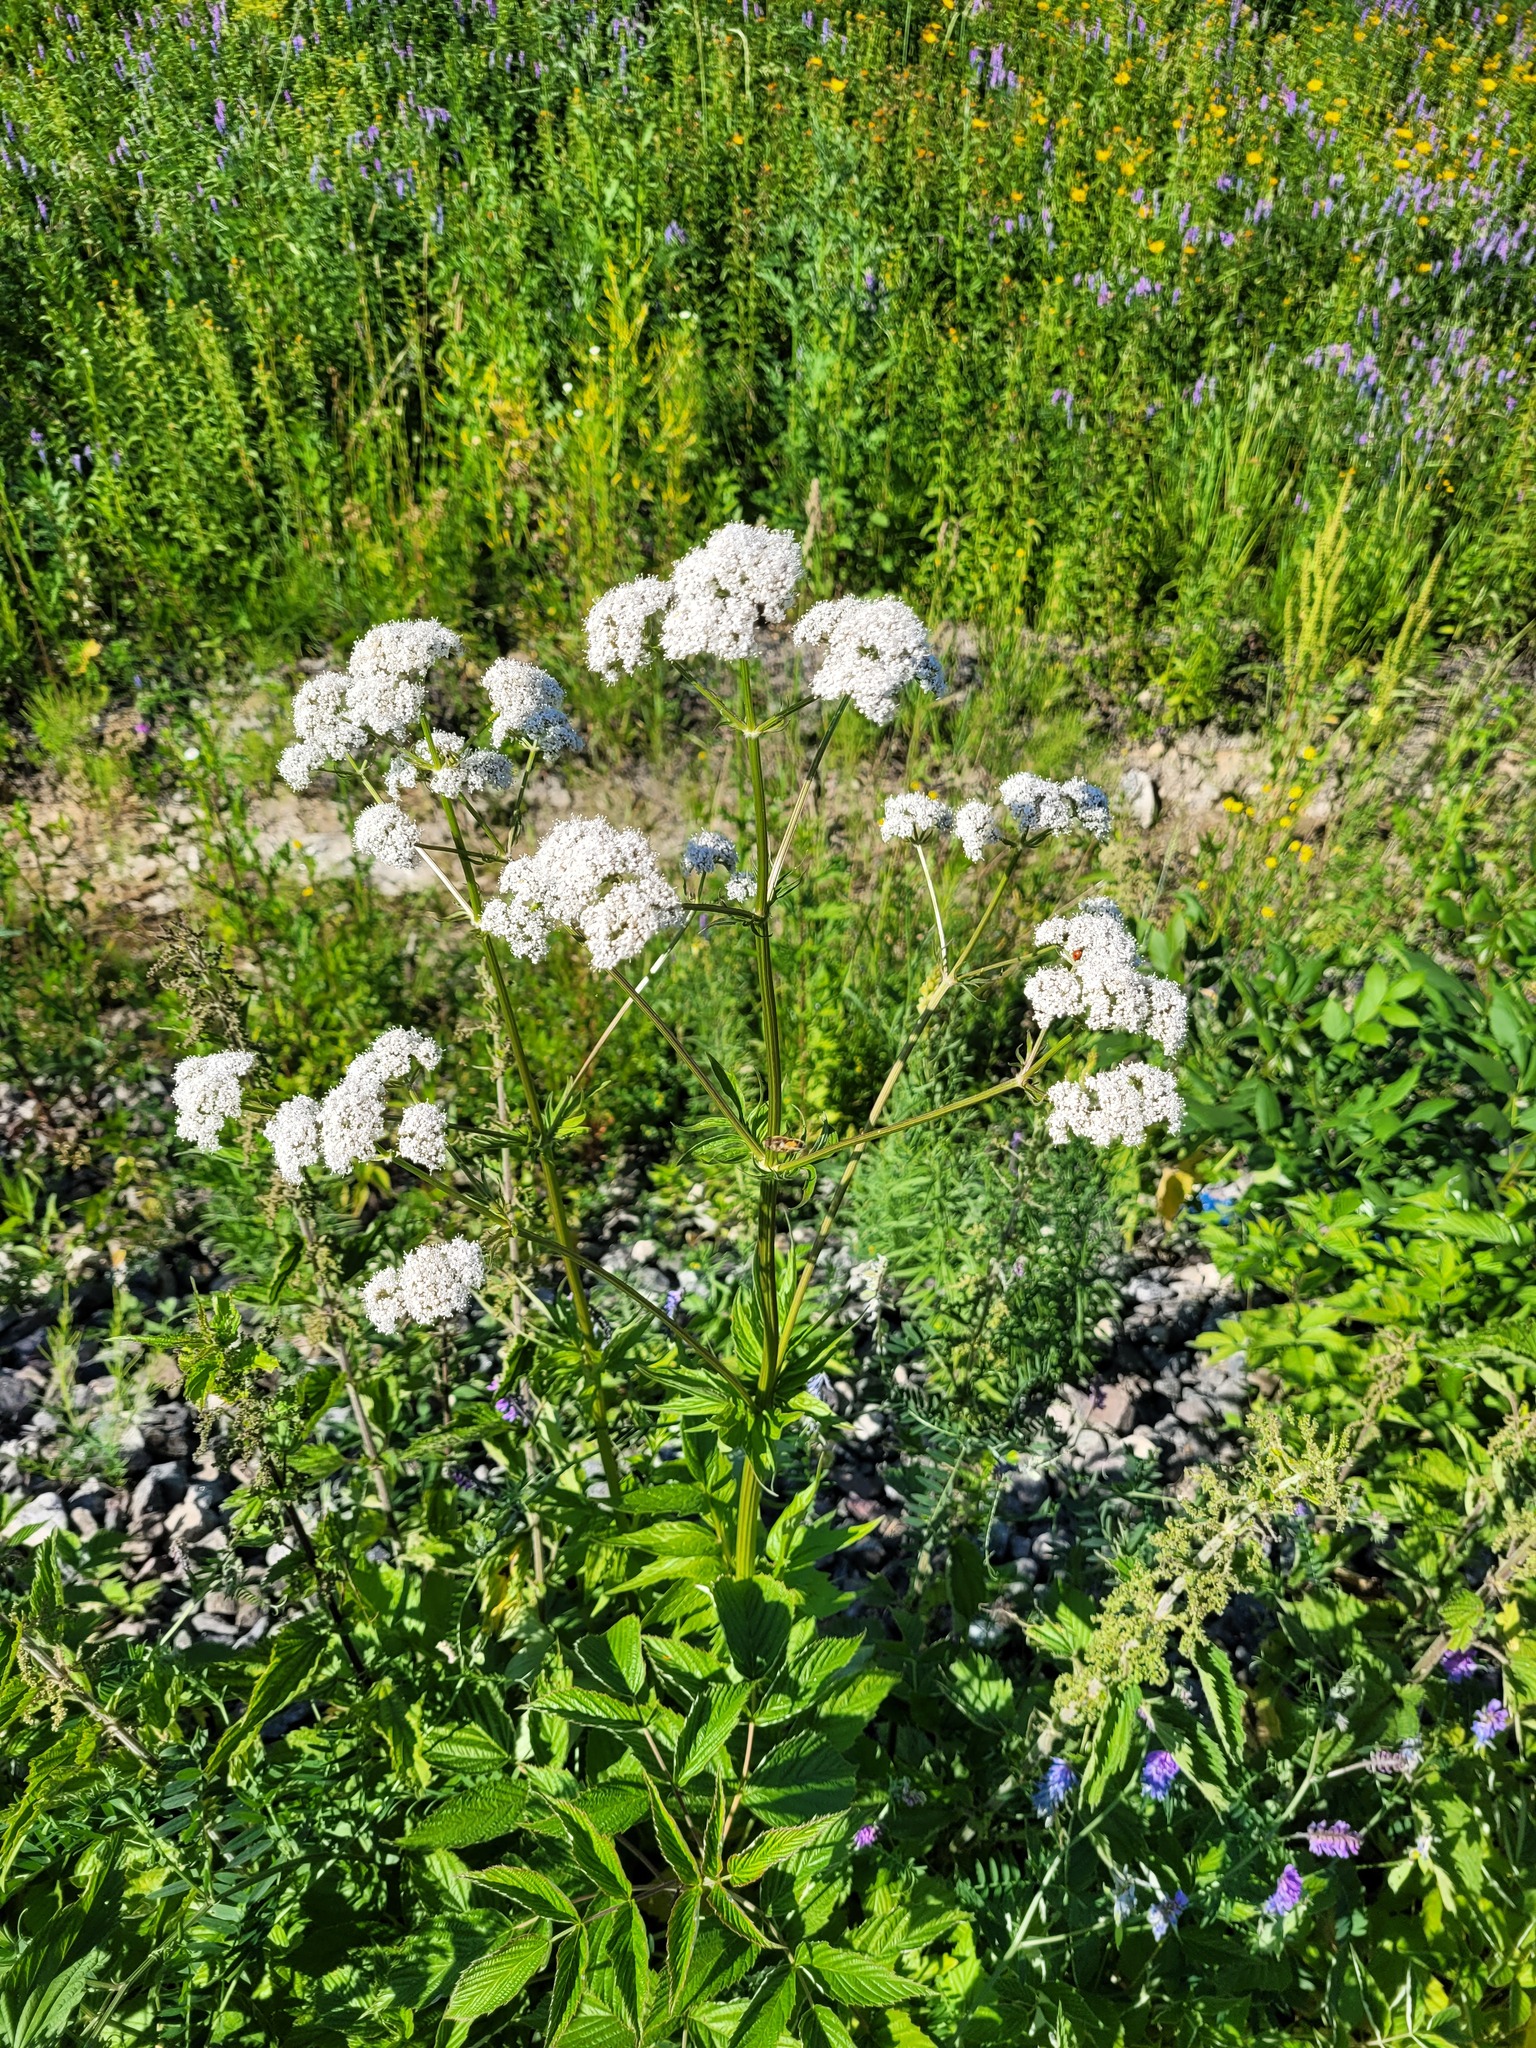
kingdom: Plantae
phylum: Tracheophyta
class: Magnoliopsida
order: Dipsacales
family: Caprifoliaceae
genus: Valeriana
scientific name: Valeriana officinalis
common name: Common valerian
